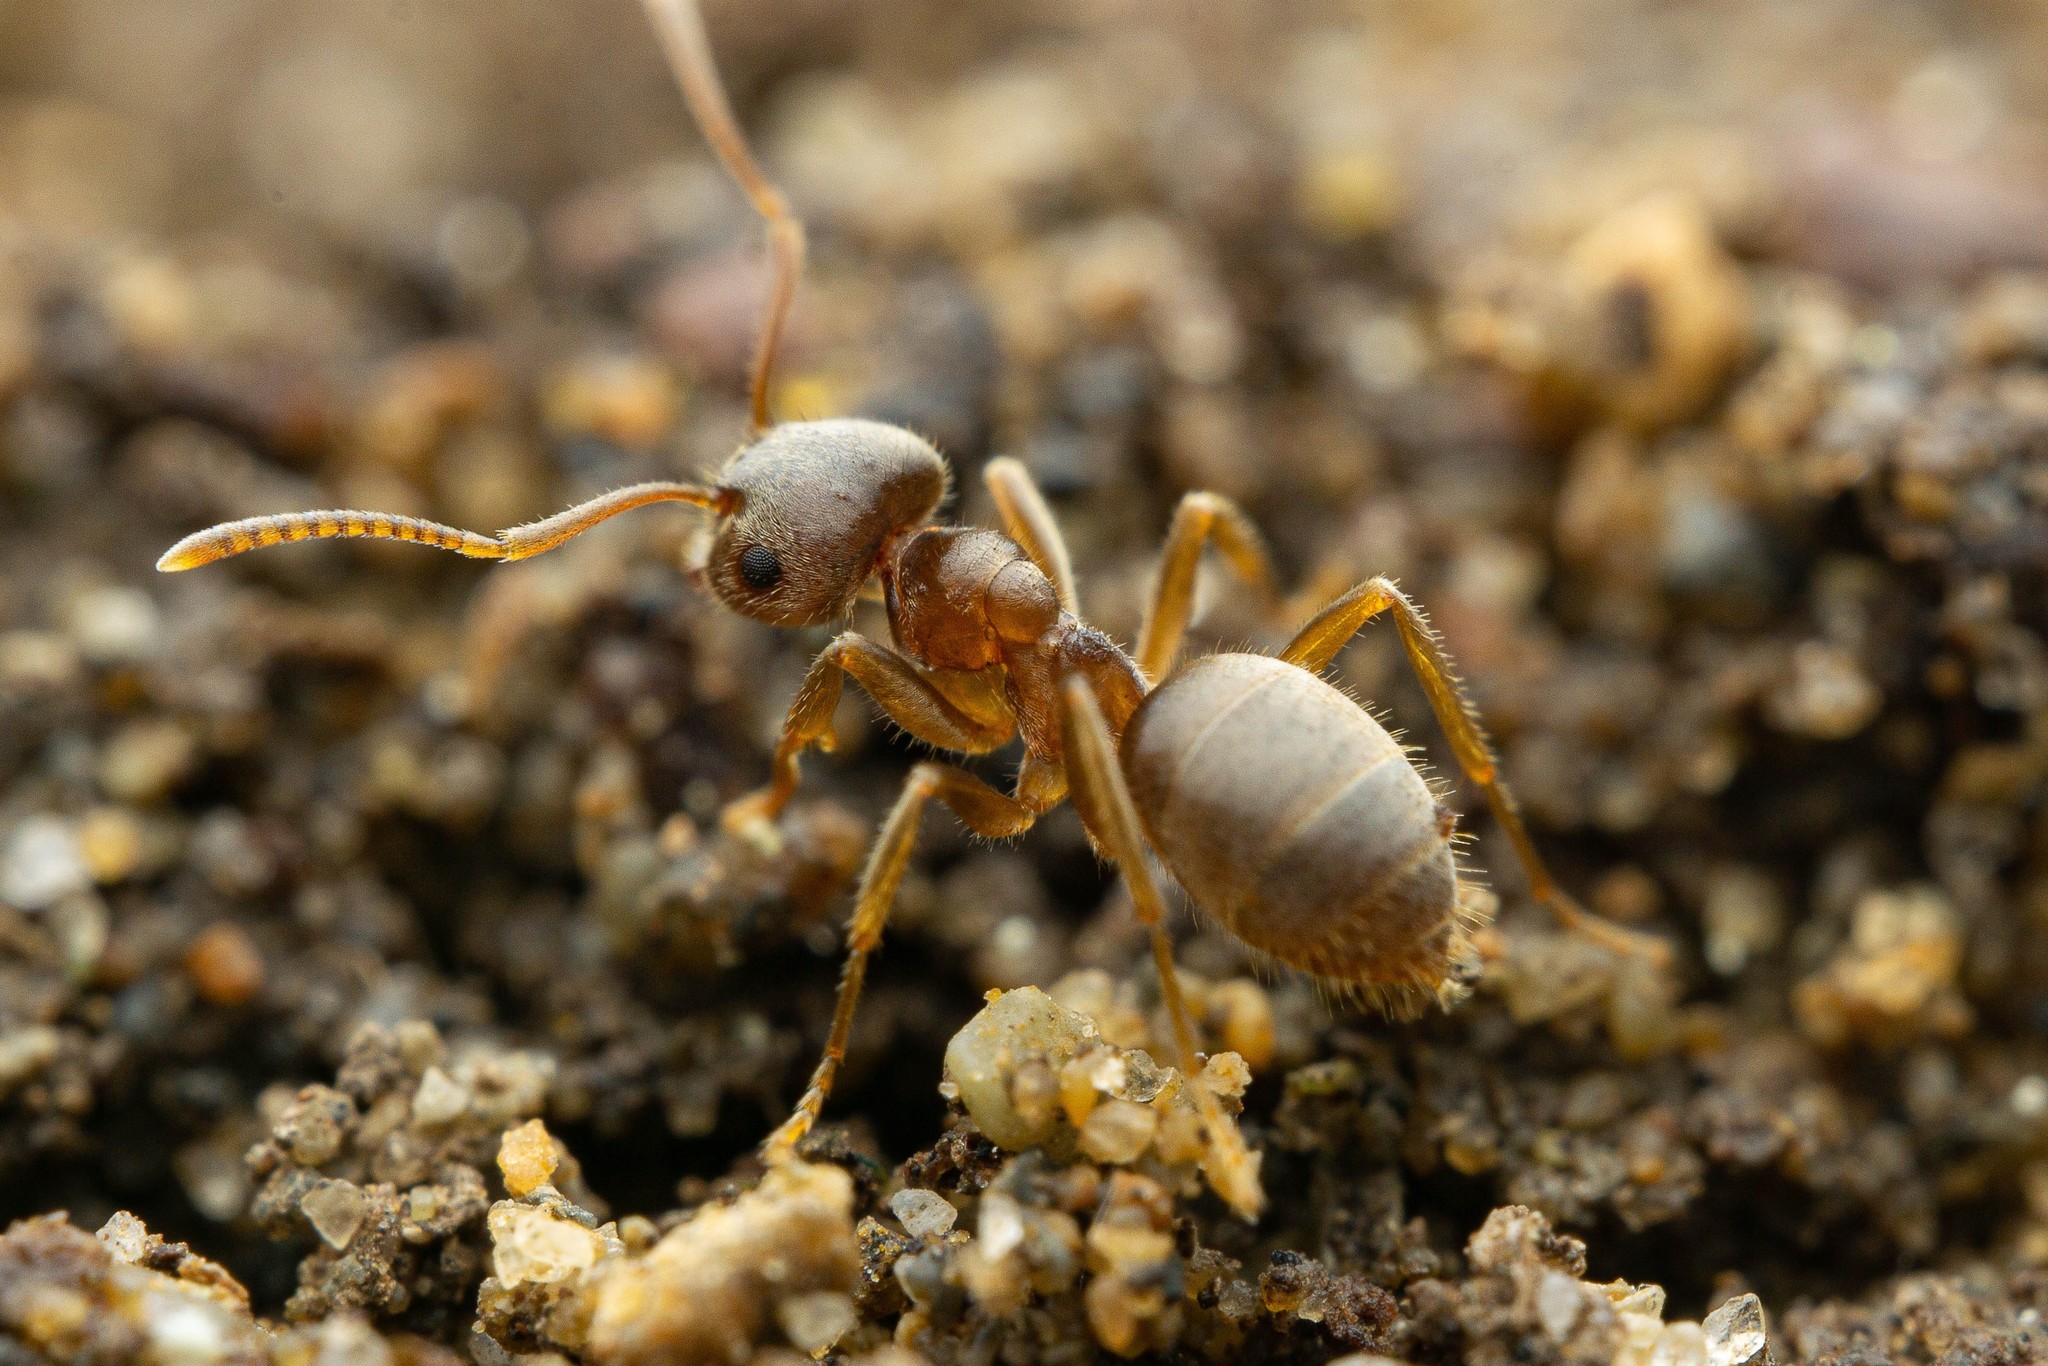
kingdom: Animalia
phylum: Arthropoda
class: Insecta
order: Hymenoptera
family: Formicidae
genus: Lasius
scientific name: Lasius neoniger
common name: Turfgrass ant
